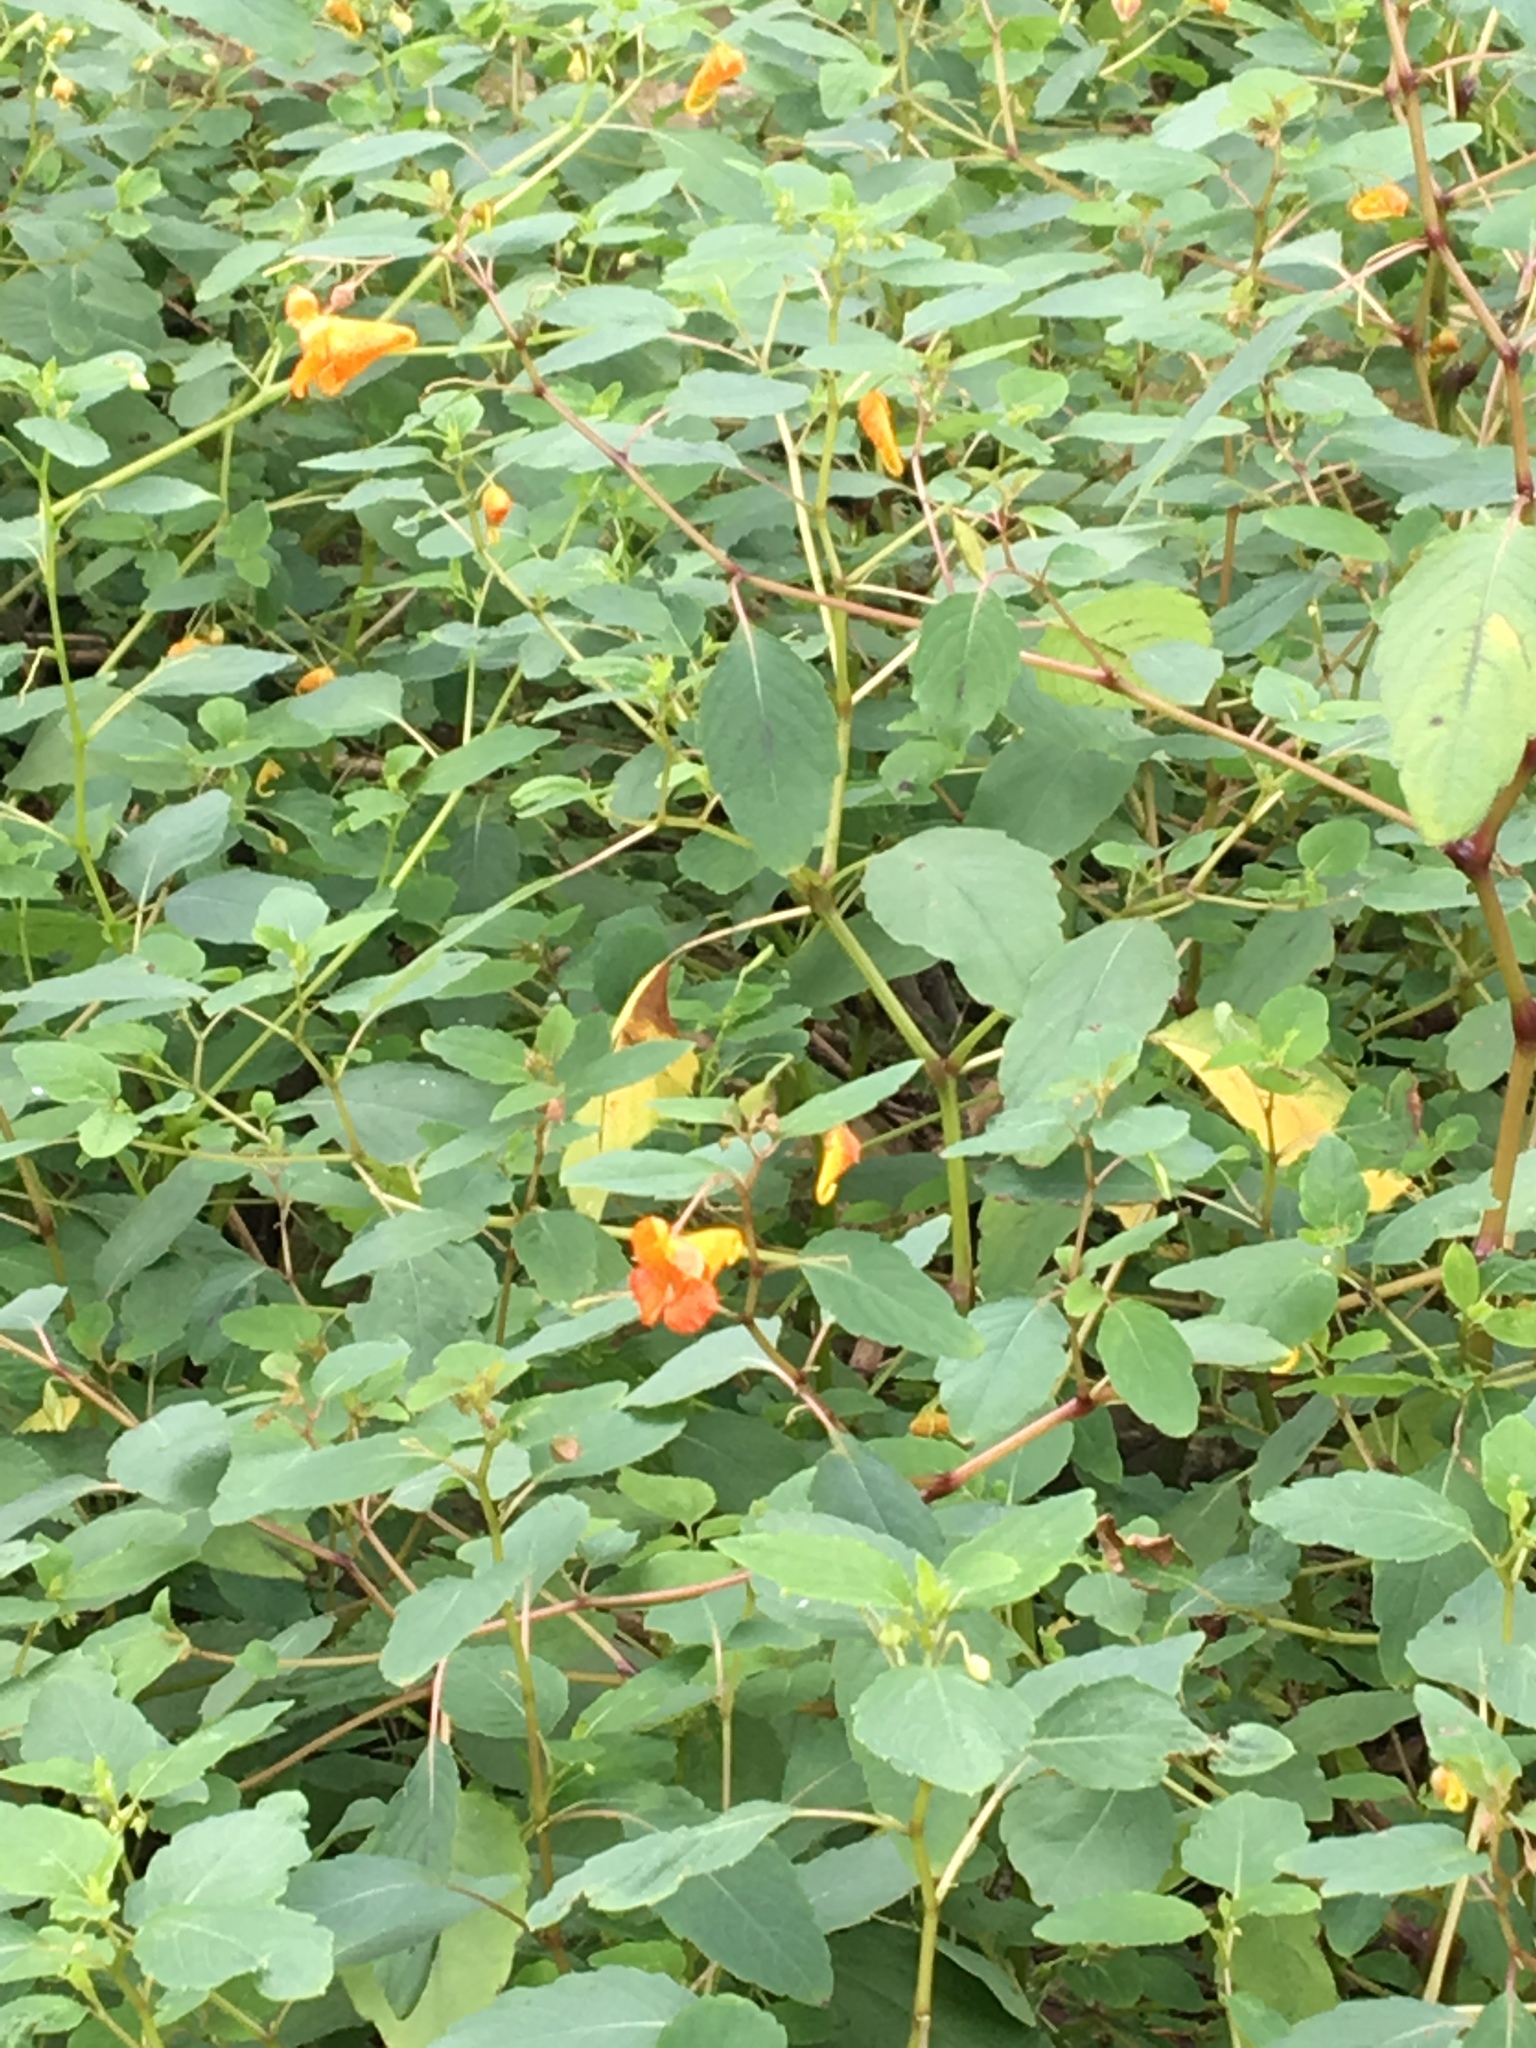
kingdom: Plantae
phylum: Tracheophyta
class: Magnoliopsida
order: Ericales
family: Balsaminaceae
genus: Impatiens
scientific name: Impatiens capensis
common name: Orange balsam
